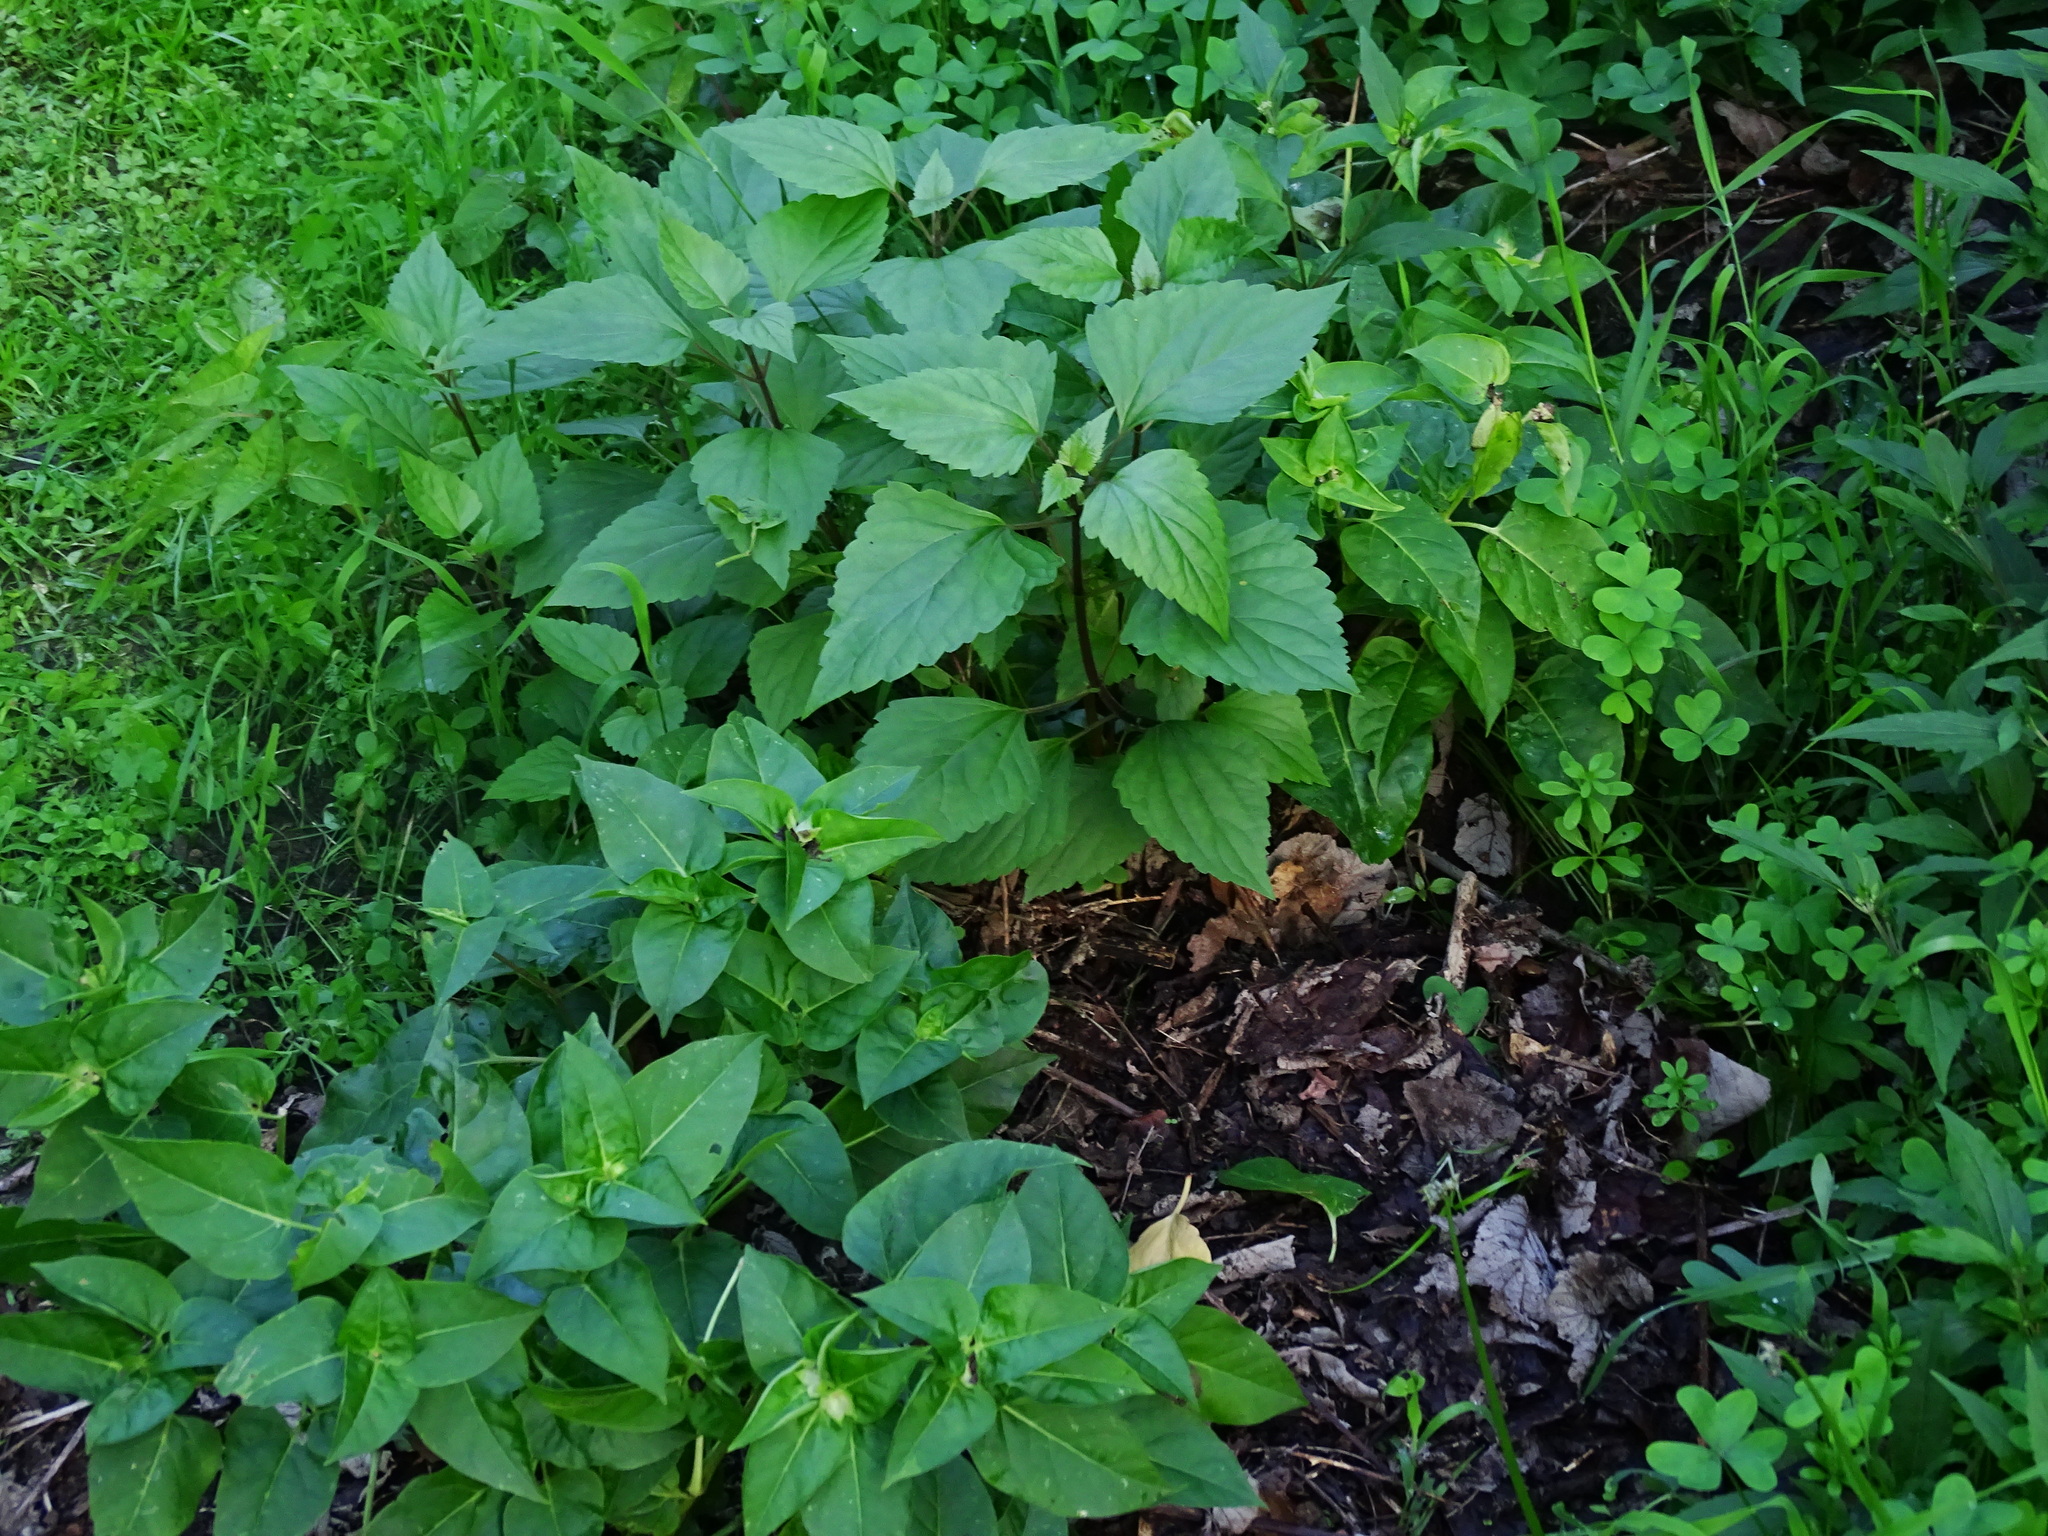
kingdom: Plantae
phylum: Tracheophyta
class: Magnoliopsida
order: Asterales
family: Asteraceae
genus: Ageratina
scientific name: Ageratina adenophora
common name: Sticky snakeroot
